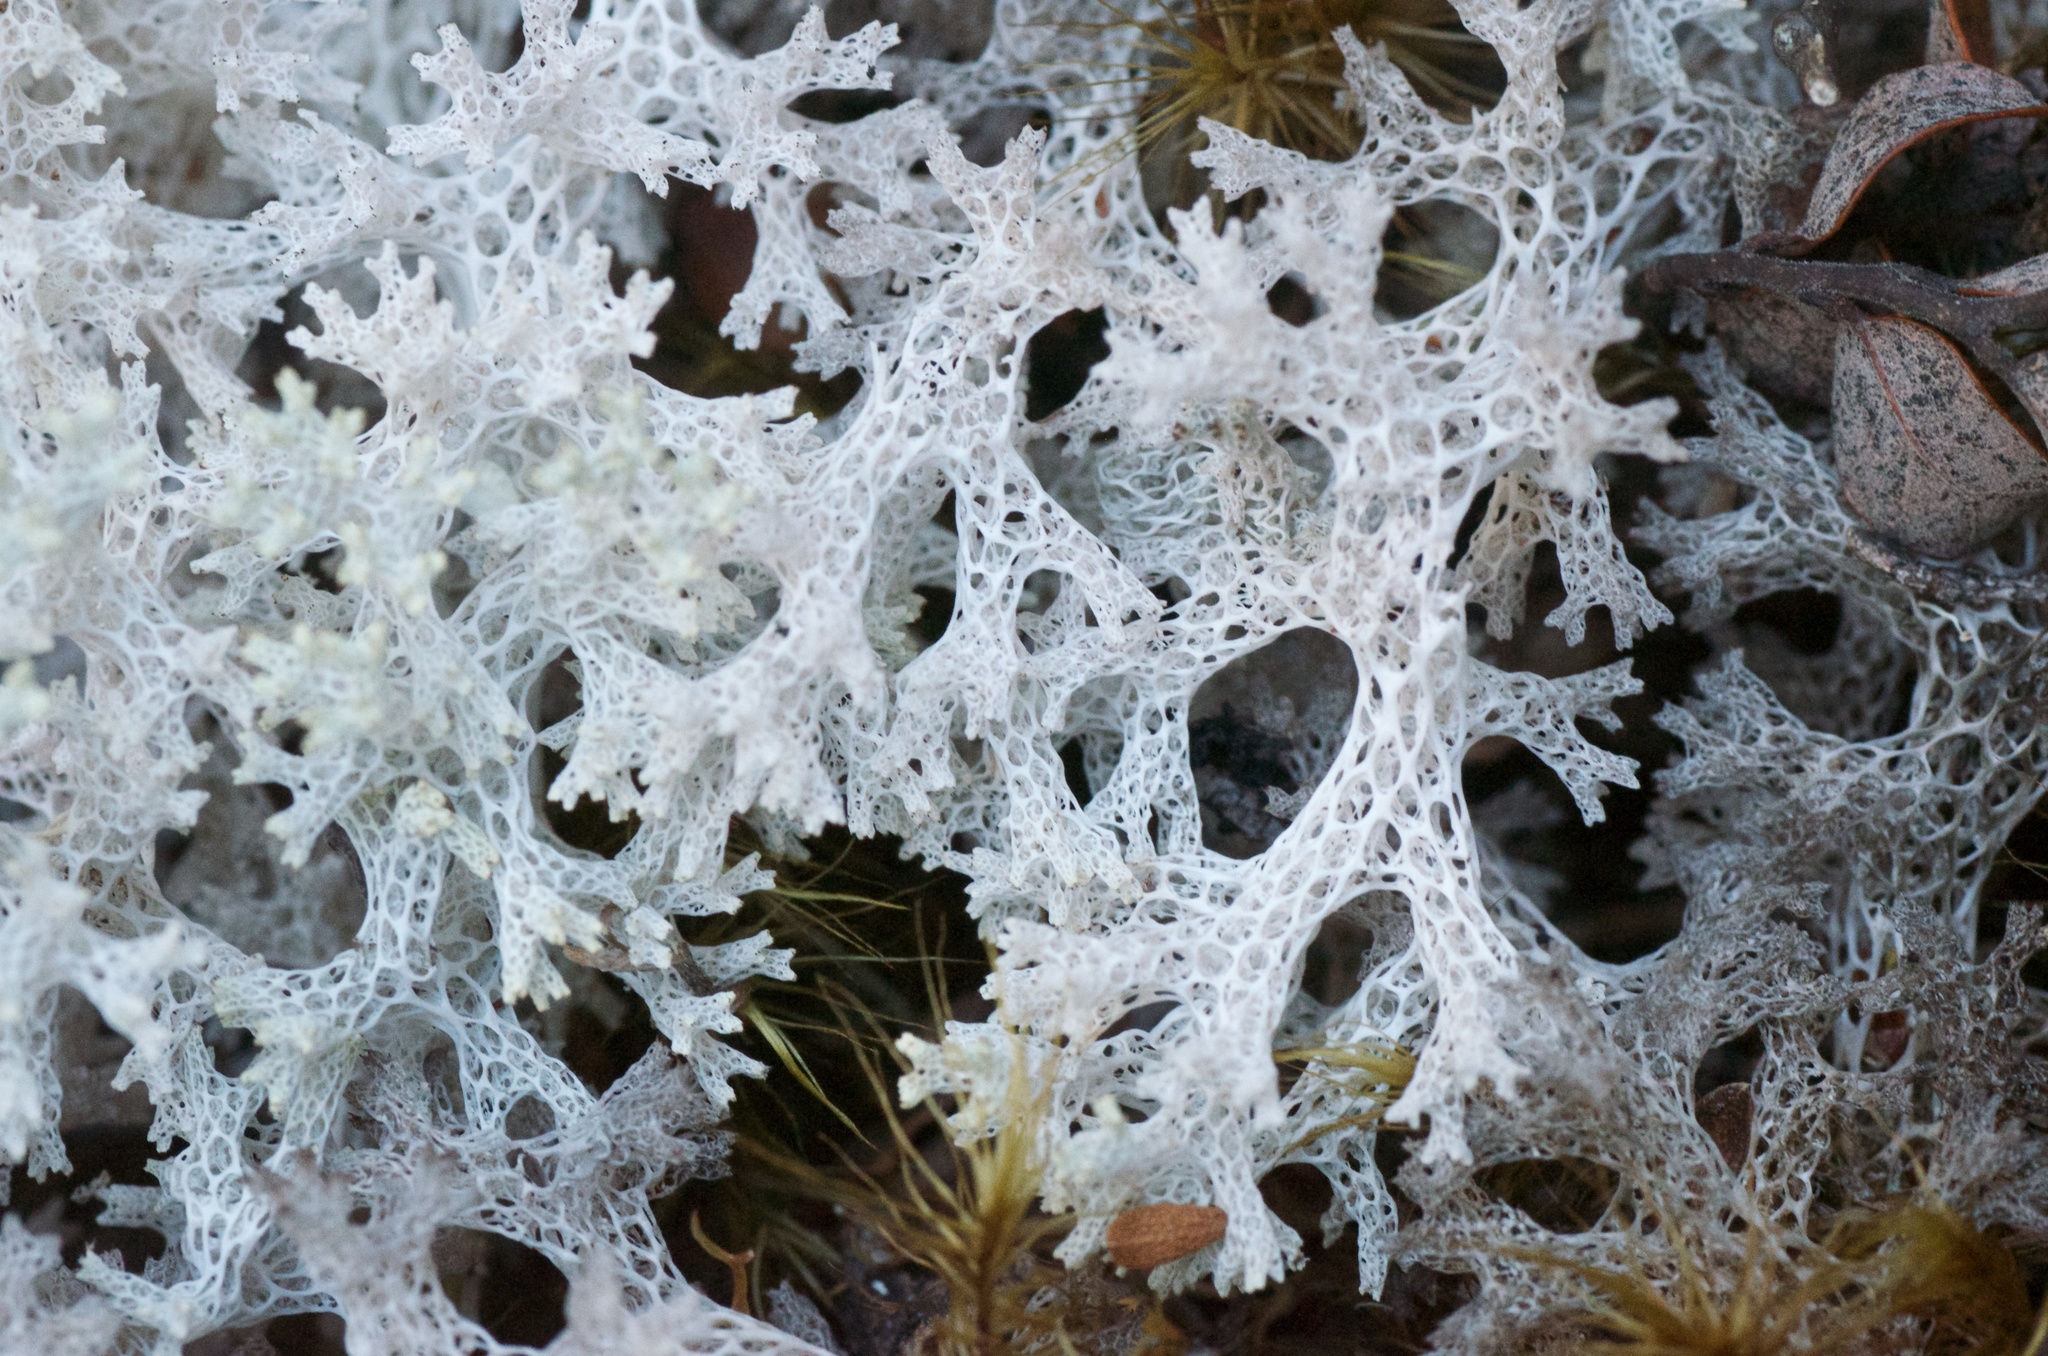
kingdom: Fungi
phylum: Ascomycota
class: Lecanoromycetes
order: Lecanorales
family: Cladoniaceae
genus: Pulchrocladia
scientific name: Pulchrocladia retipora
